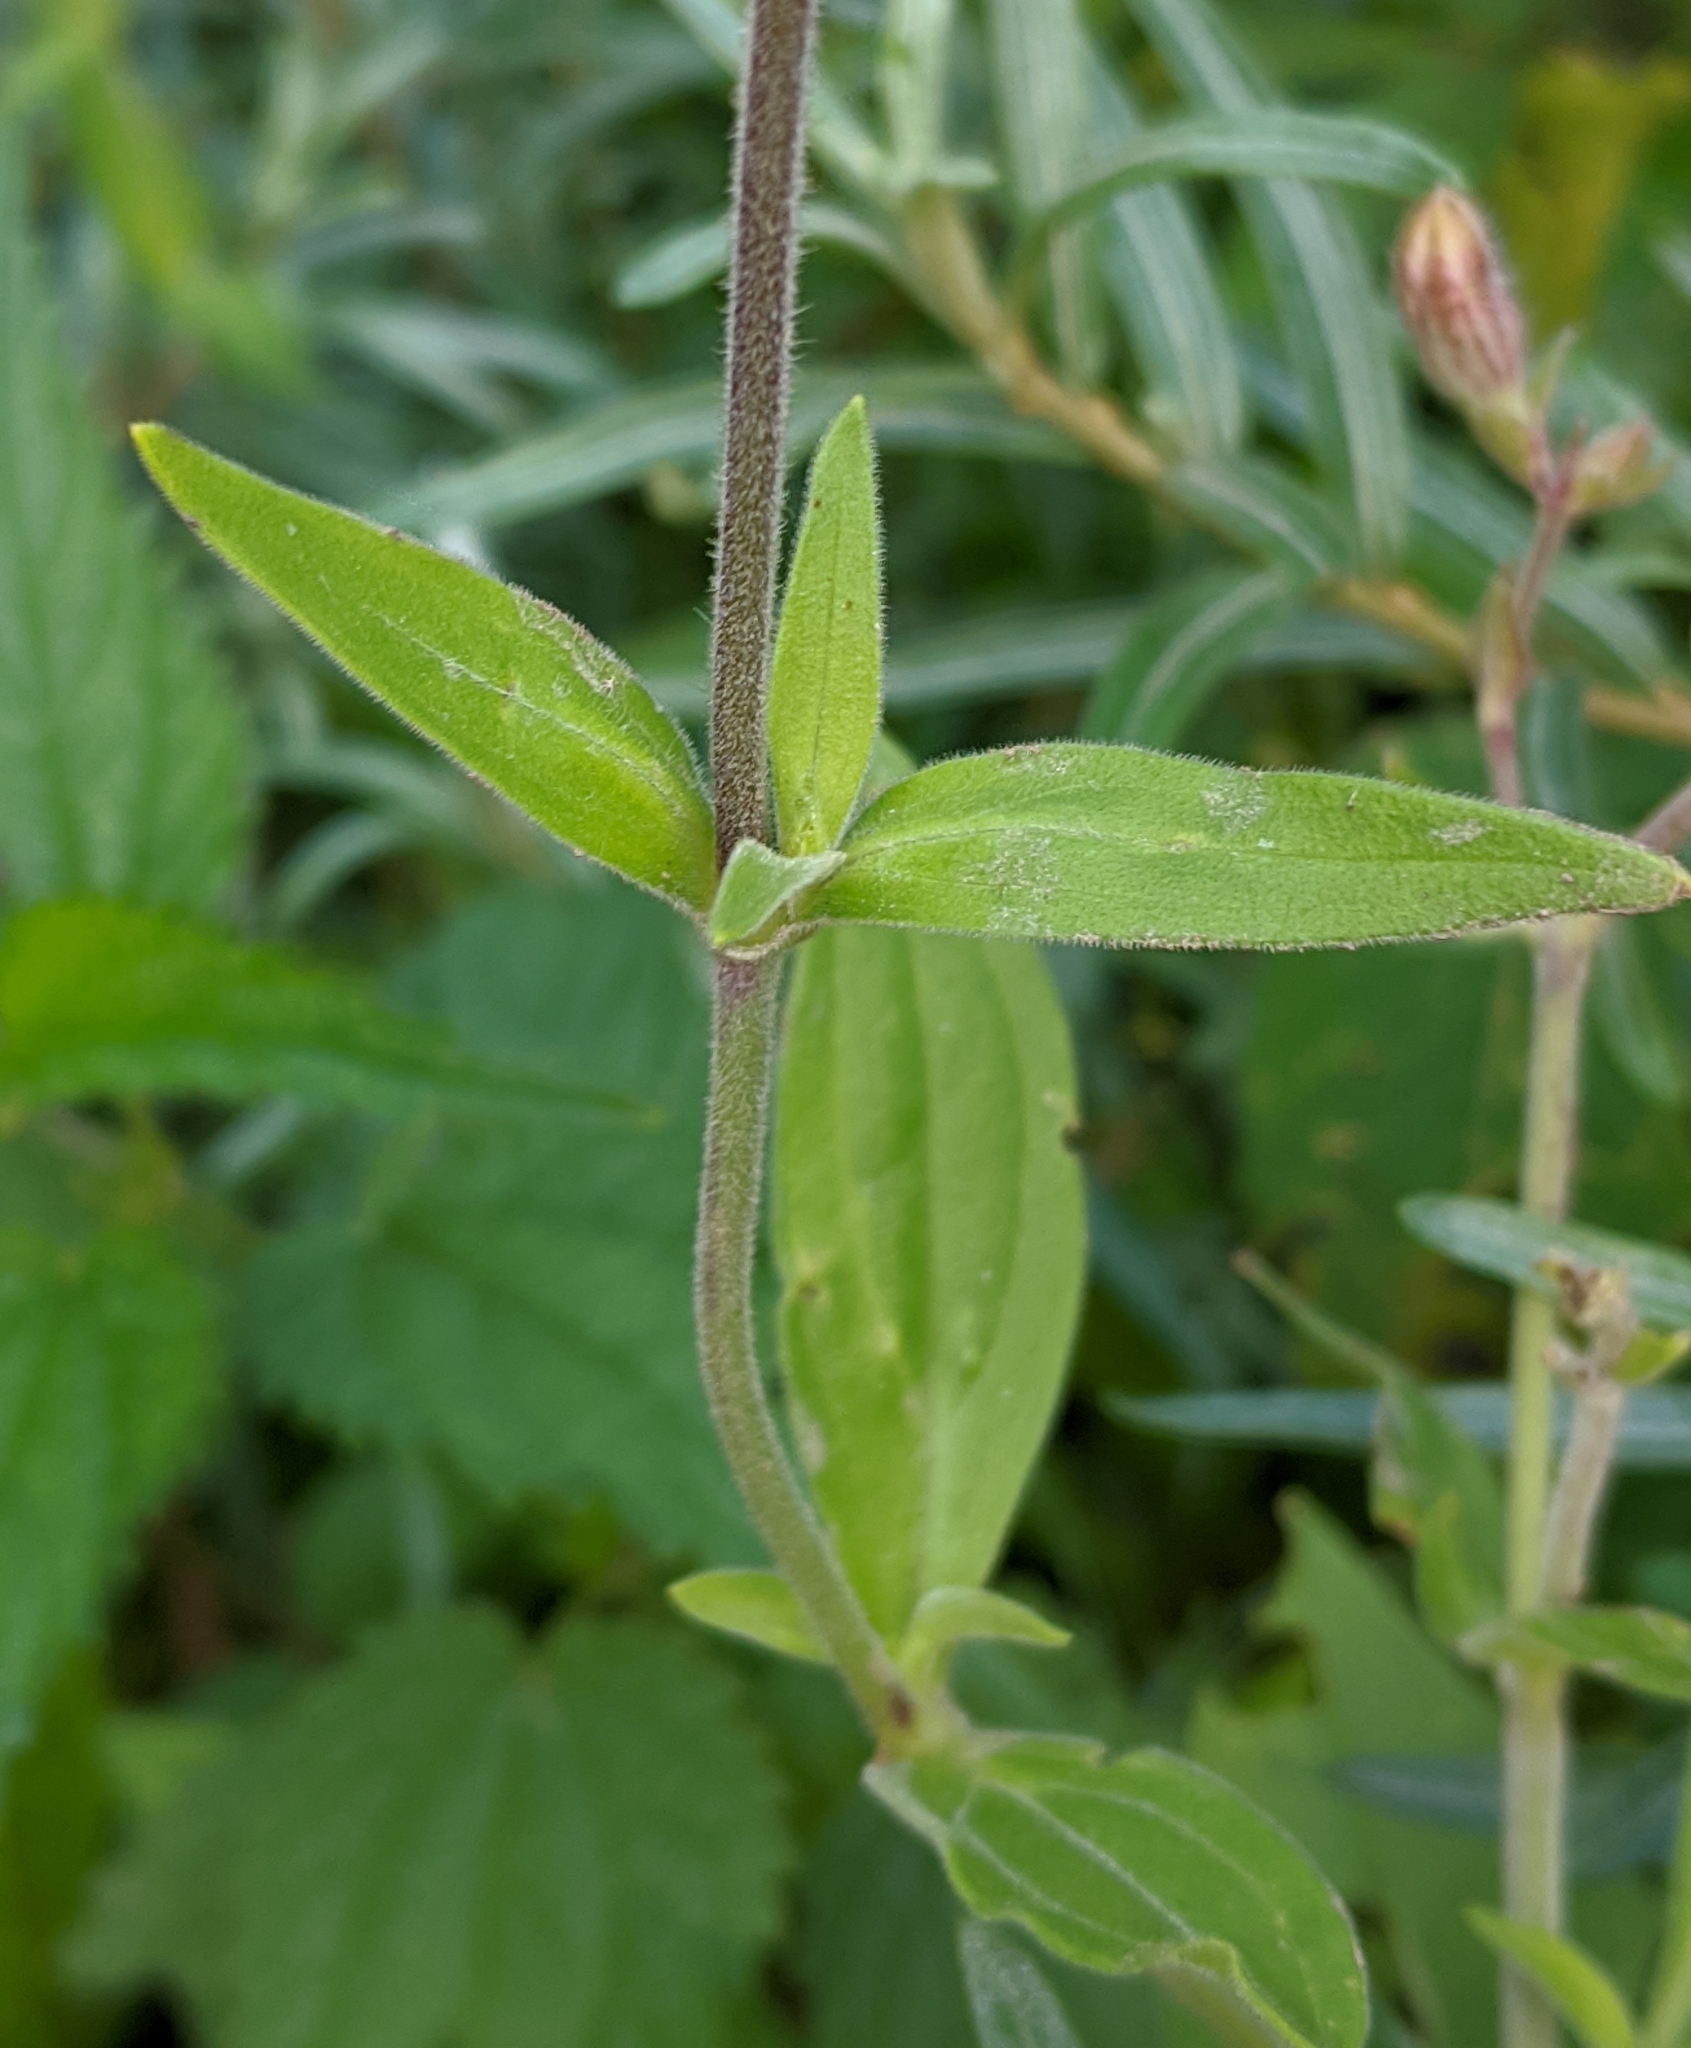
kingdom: Plantae
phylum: Tracheophyta
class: Magnoliopsida
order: Caryophyllales
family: Caryophyllaceae
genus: Silene
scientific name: Silene latifolia
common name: White campion
